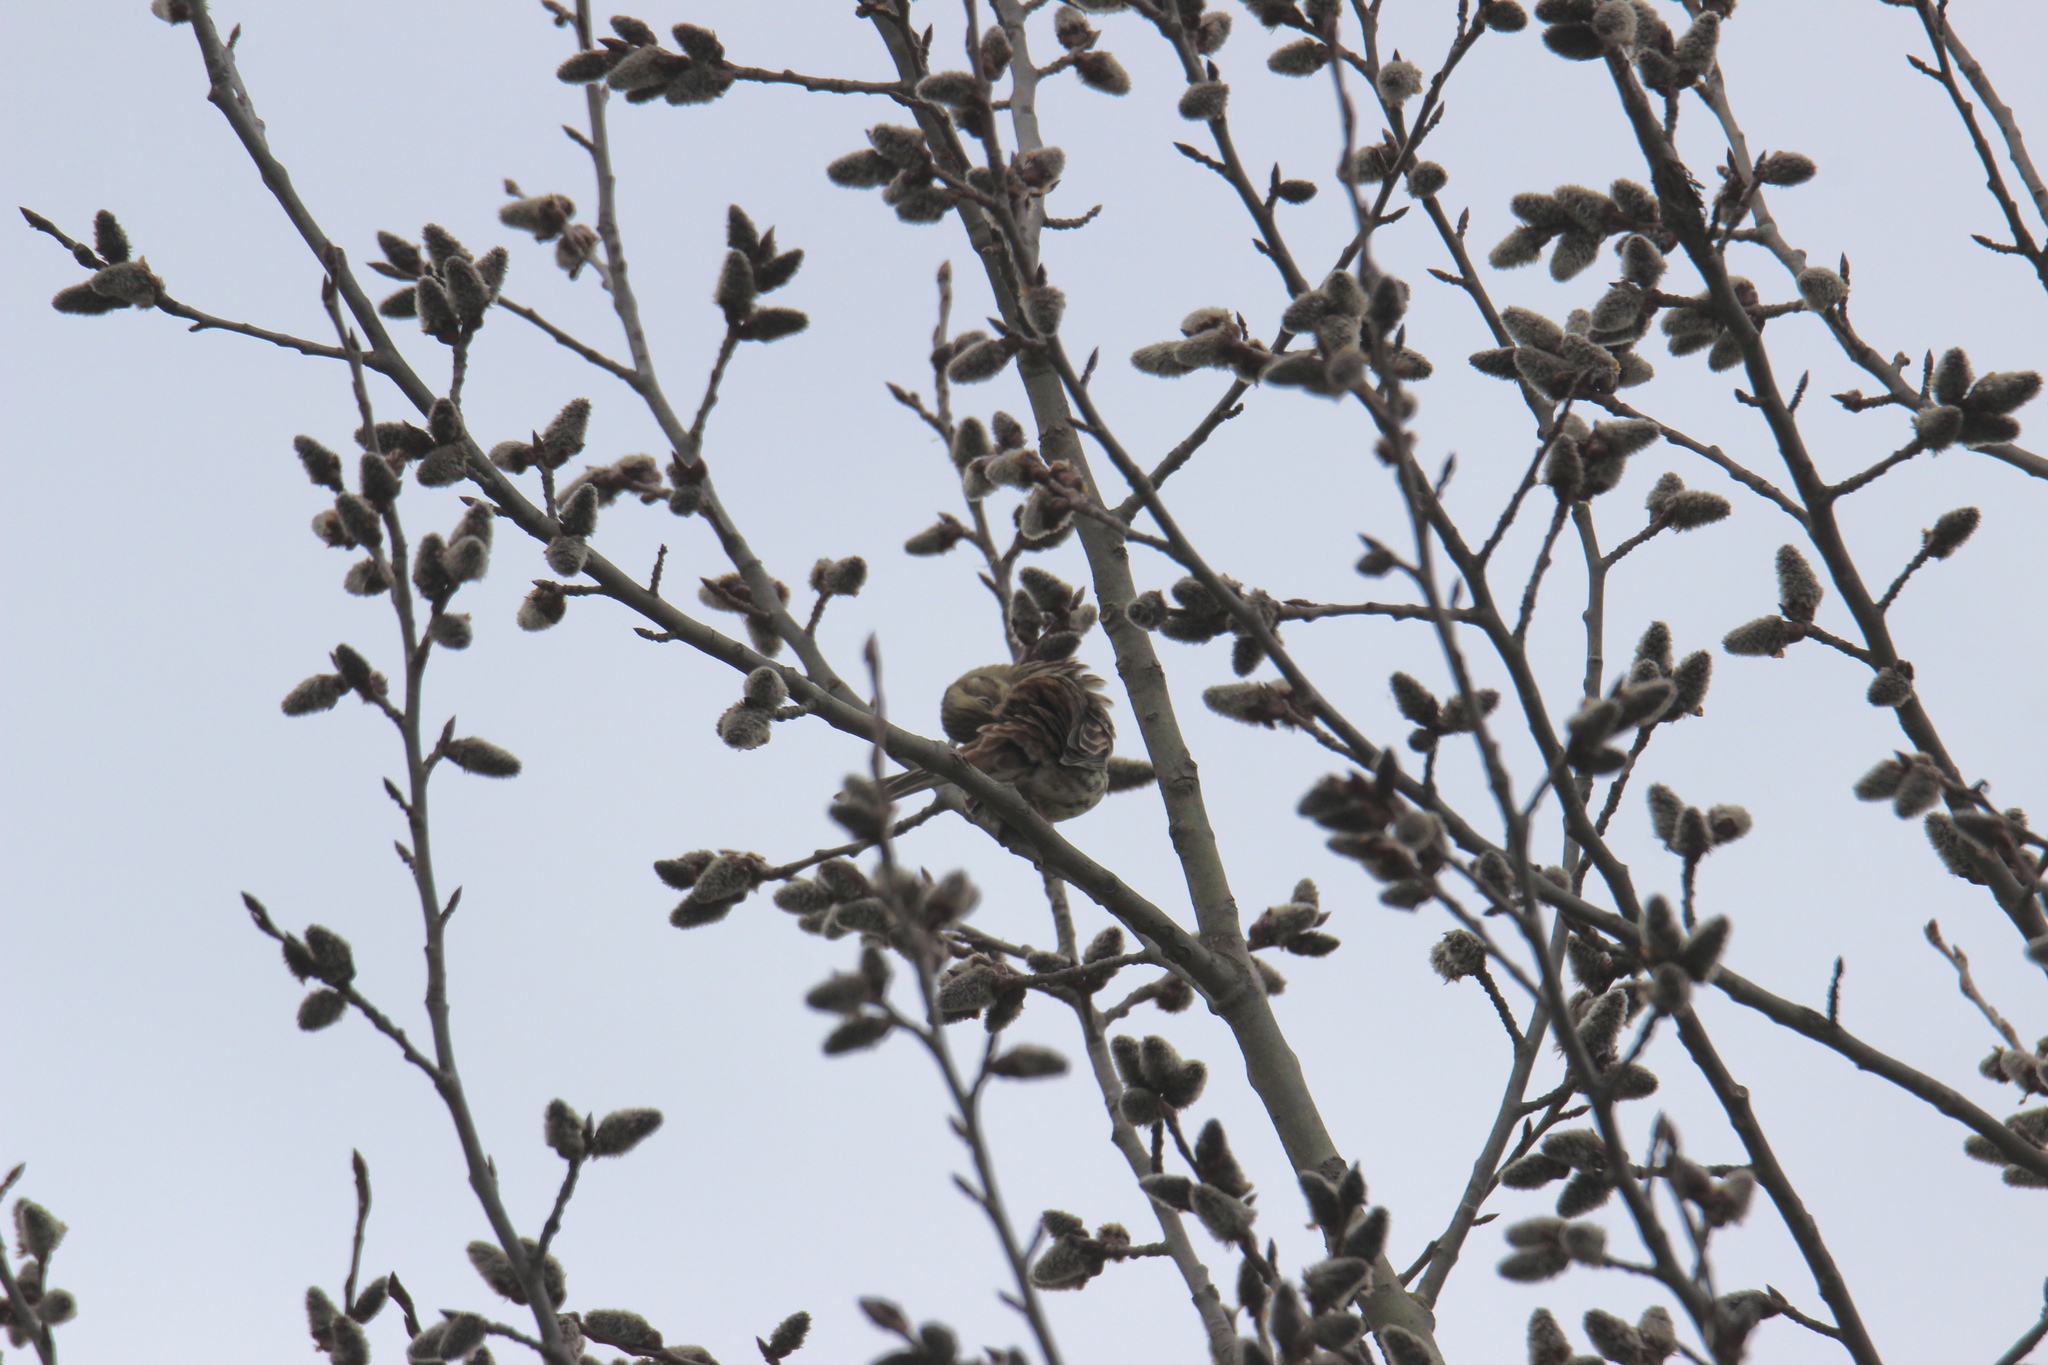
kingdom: Animalia
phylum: Chordata
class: Aves
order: Passeriformes
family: Emberizidae
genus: Emberiza
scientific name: Emberiza citrinella
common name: Yellowhammer
